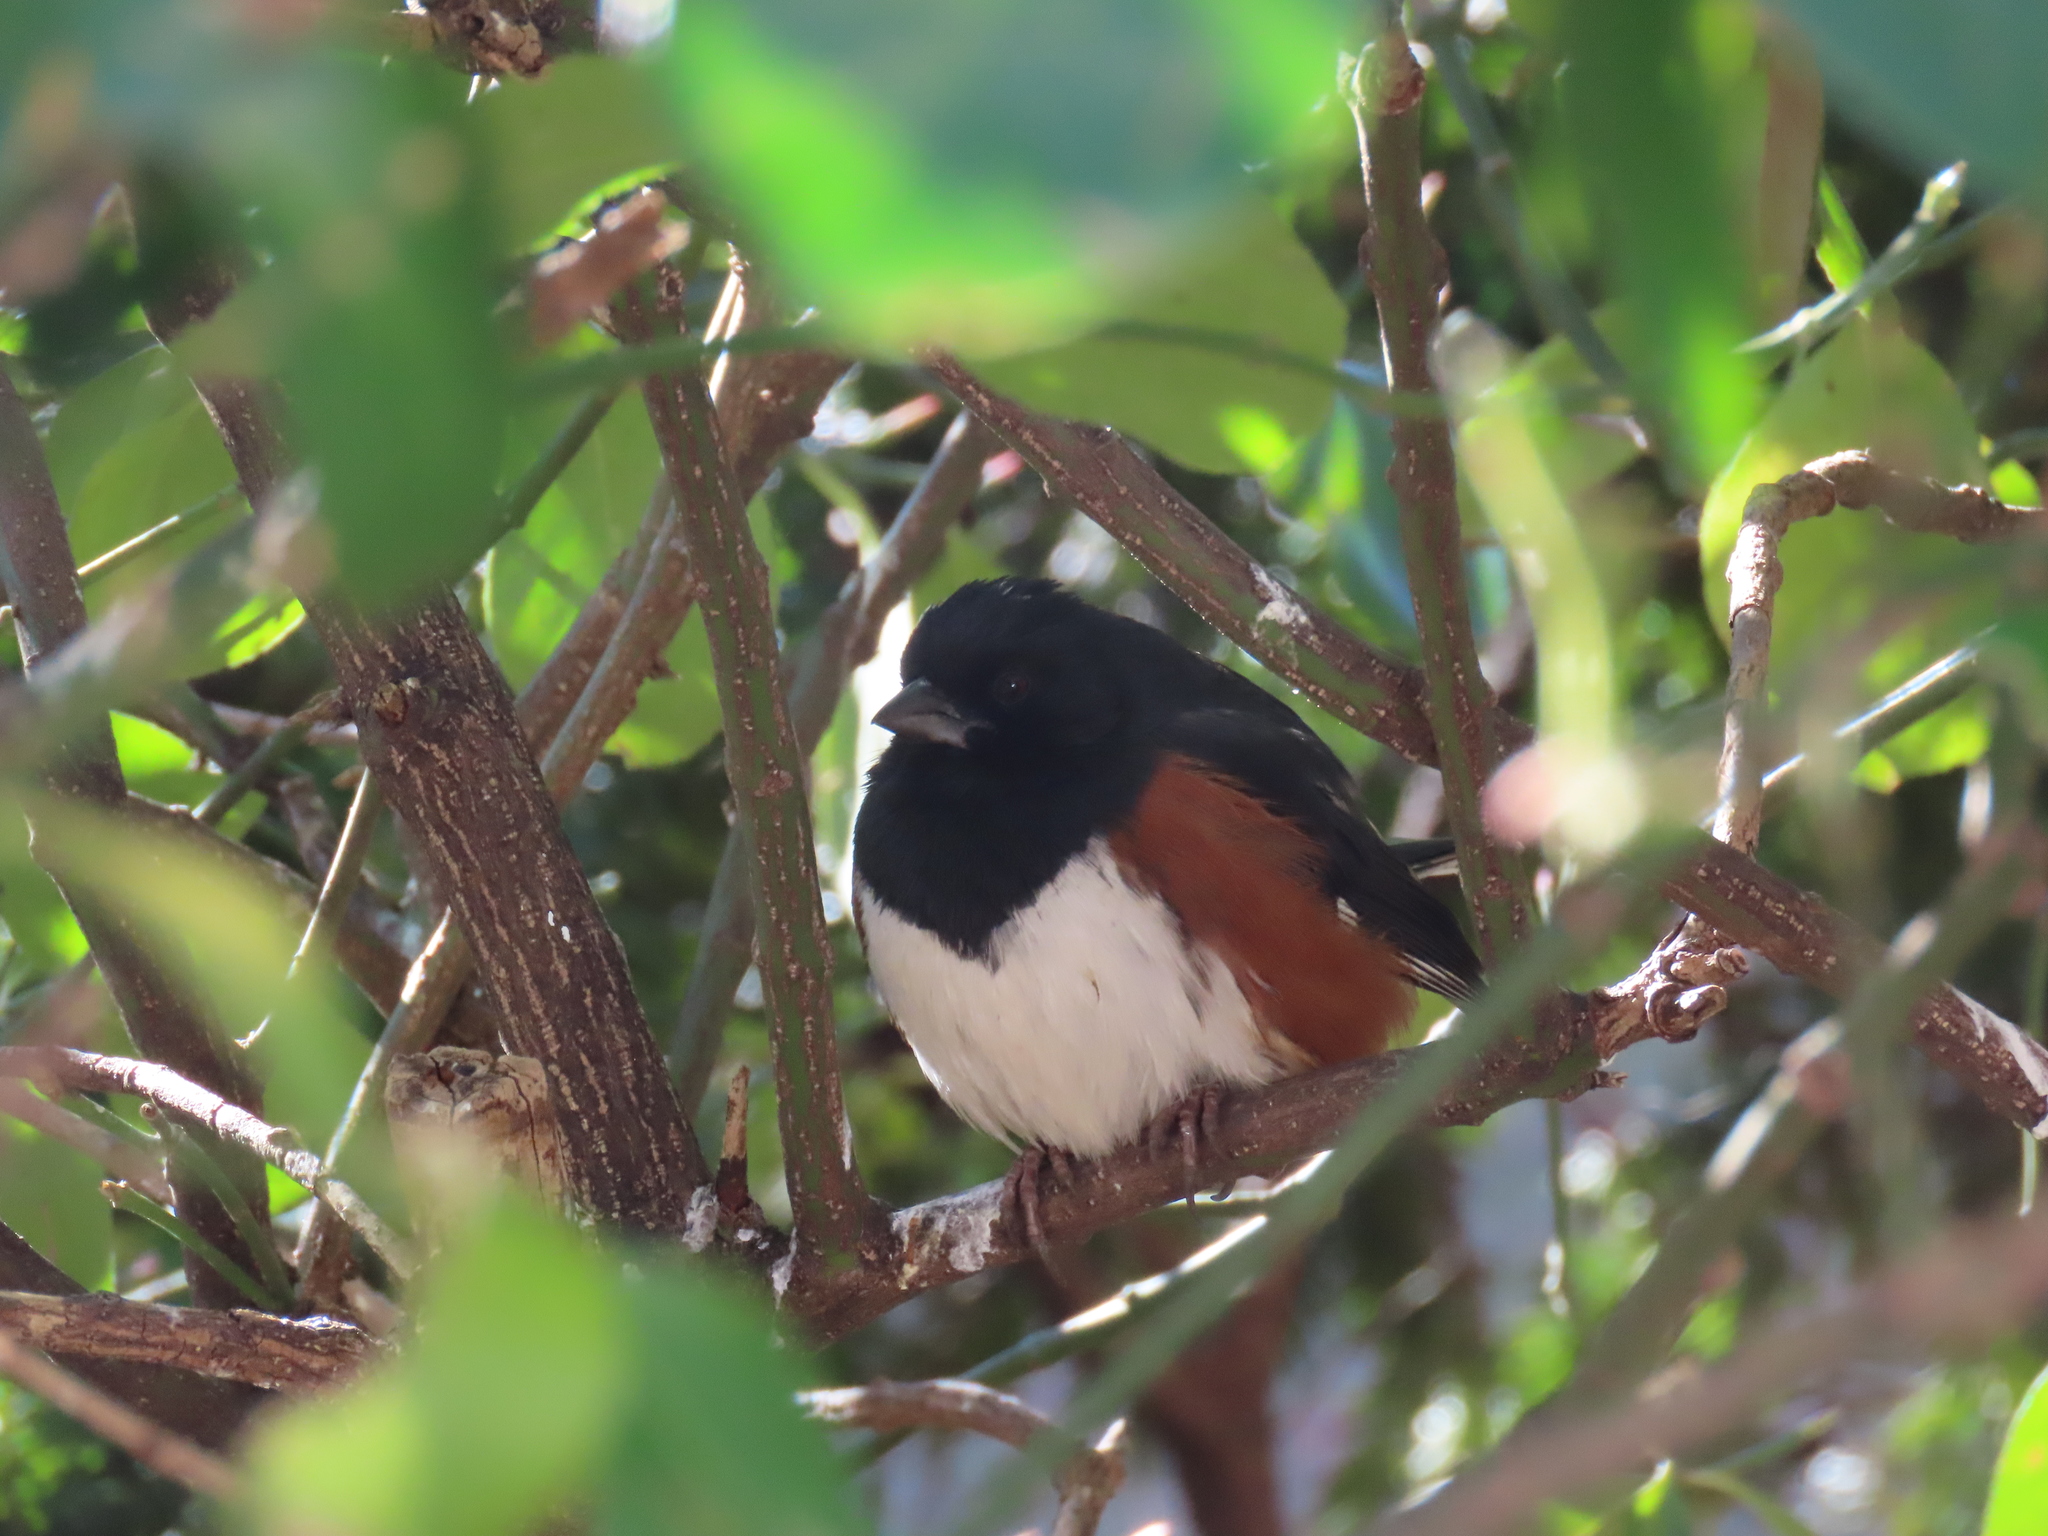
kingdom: Animalia
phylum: Chordata
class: Aves
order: Passeriformes
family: Passerellidae
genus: Pipilo
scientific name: Pipilo erythrophthalmus
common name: Eastern towhee
